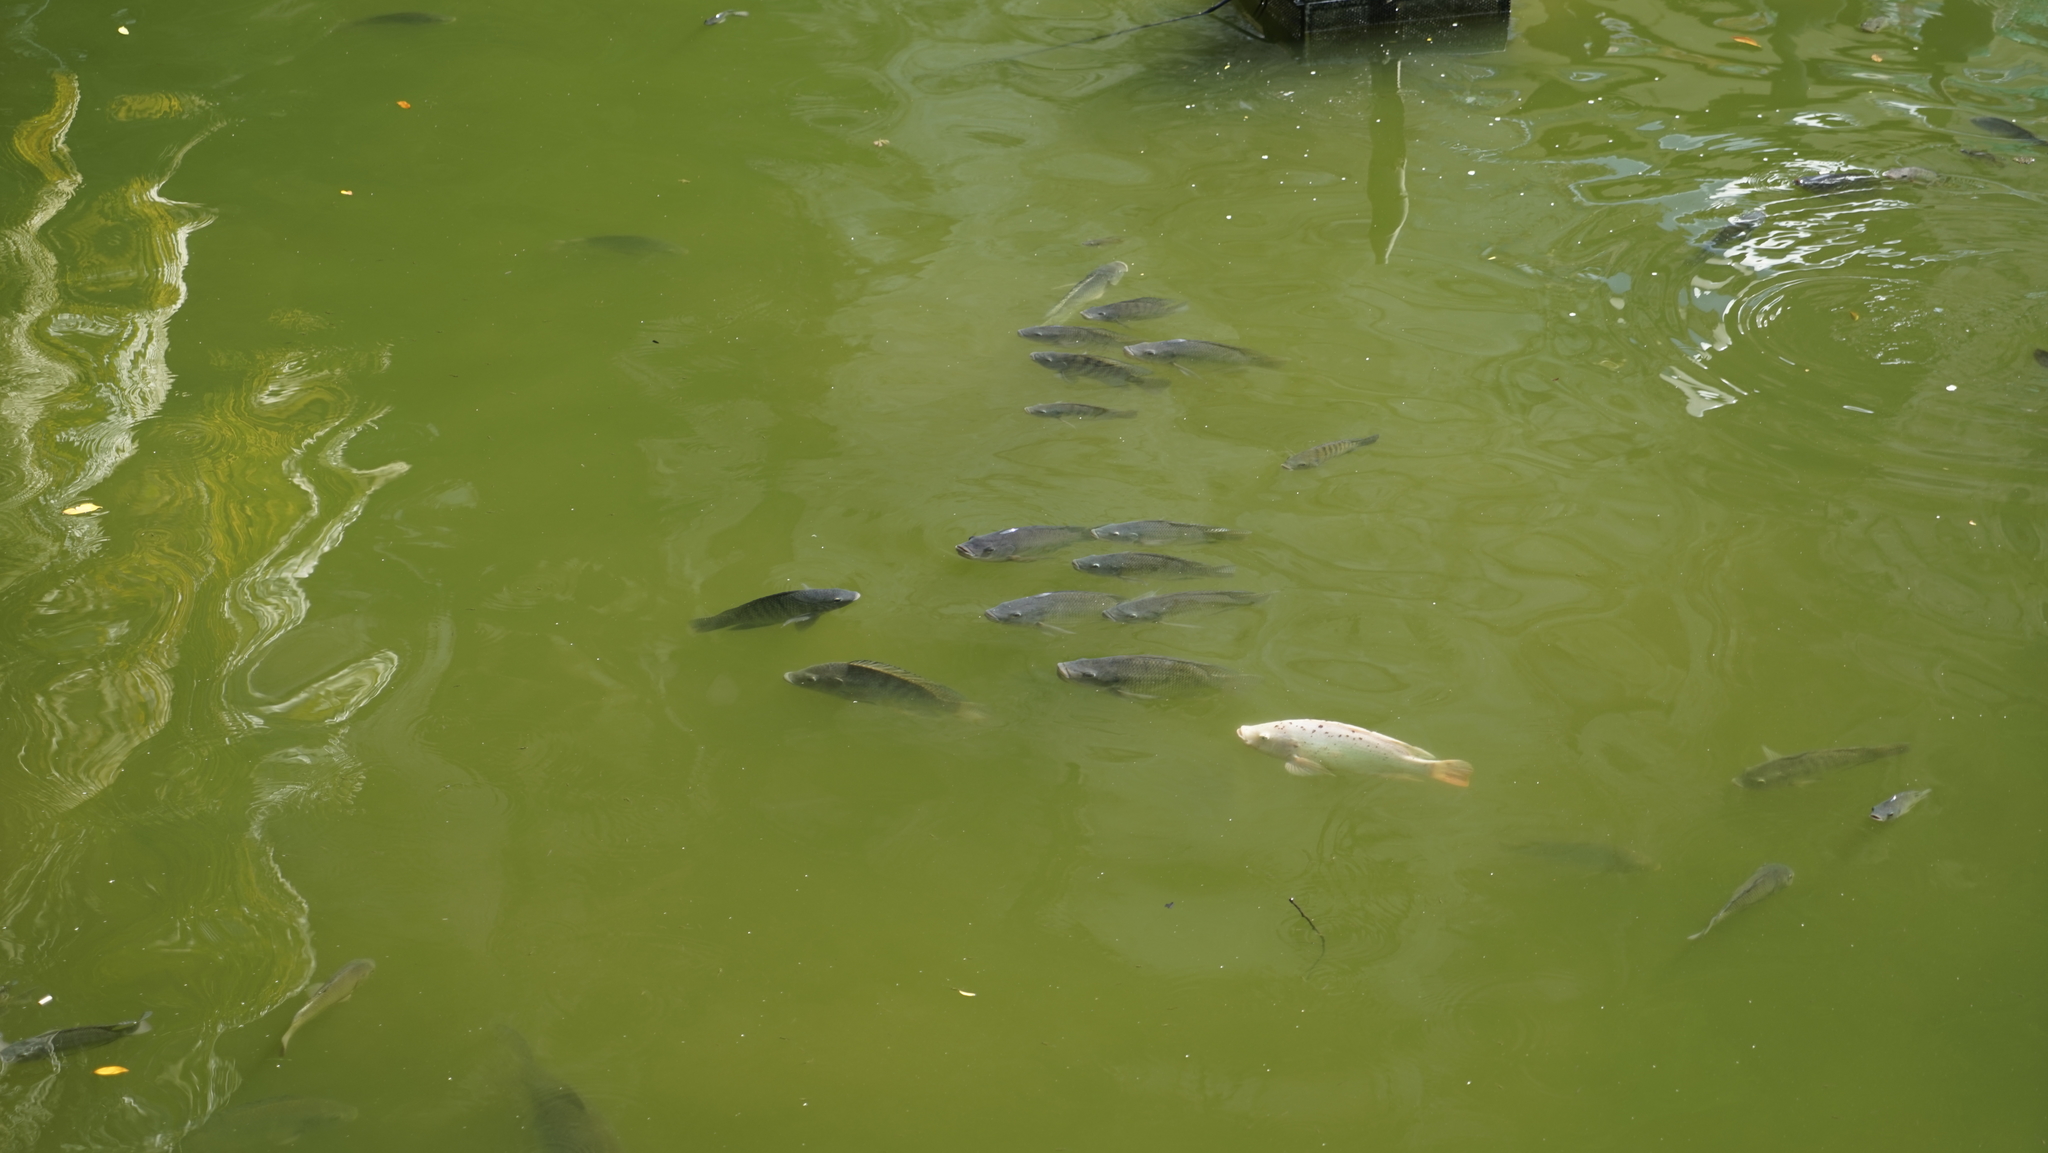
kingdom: Animalia
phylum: Chordata
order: Perciformes
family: Cichlidae
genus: Oreochromis
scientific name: Oreochromis niloticus
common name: Nile tilapia
